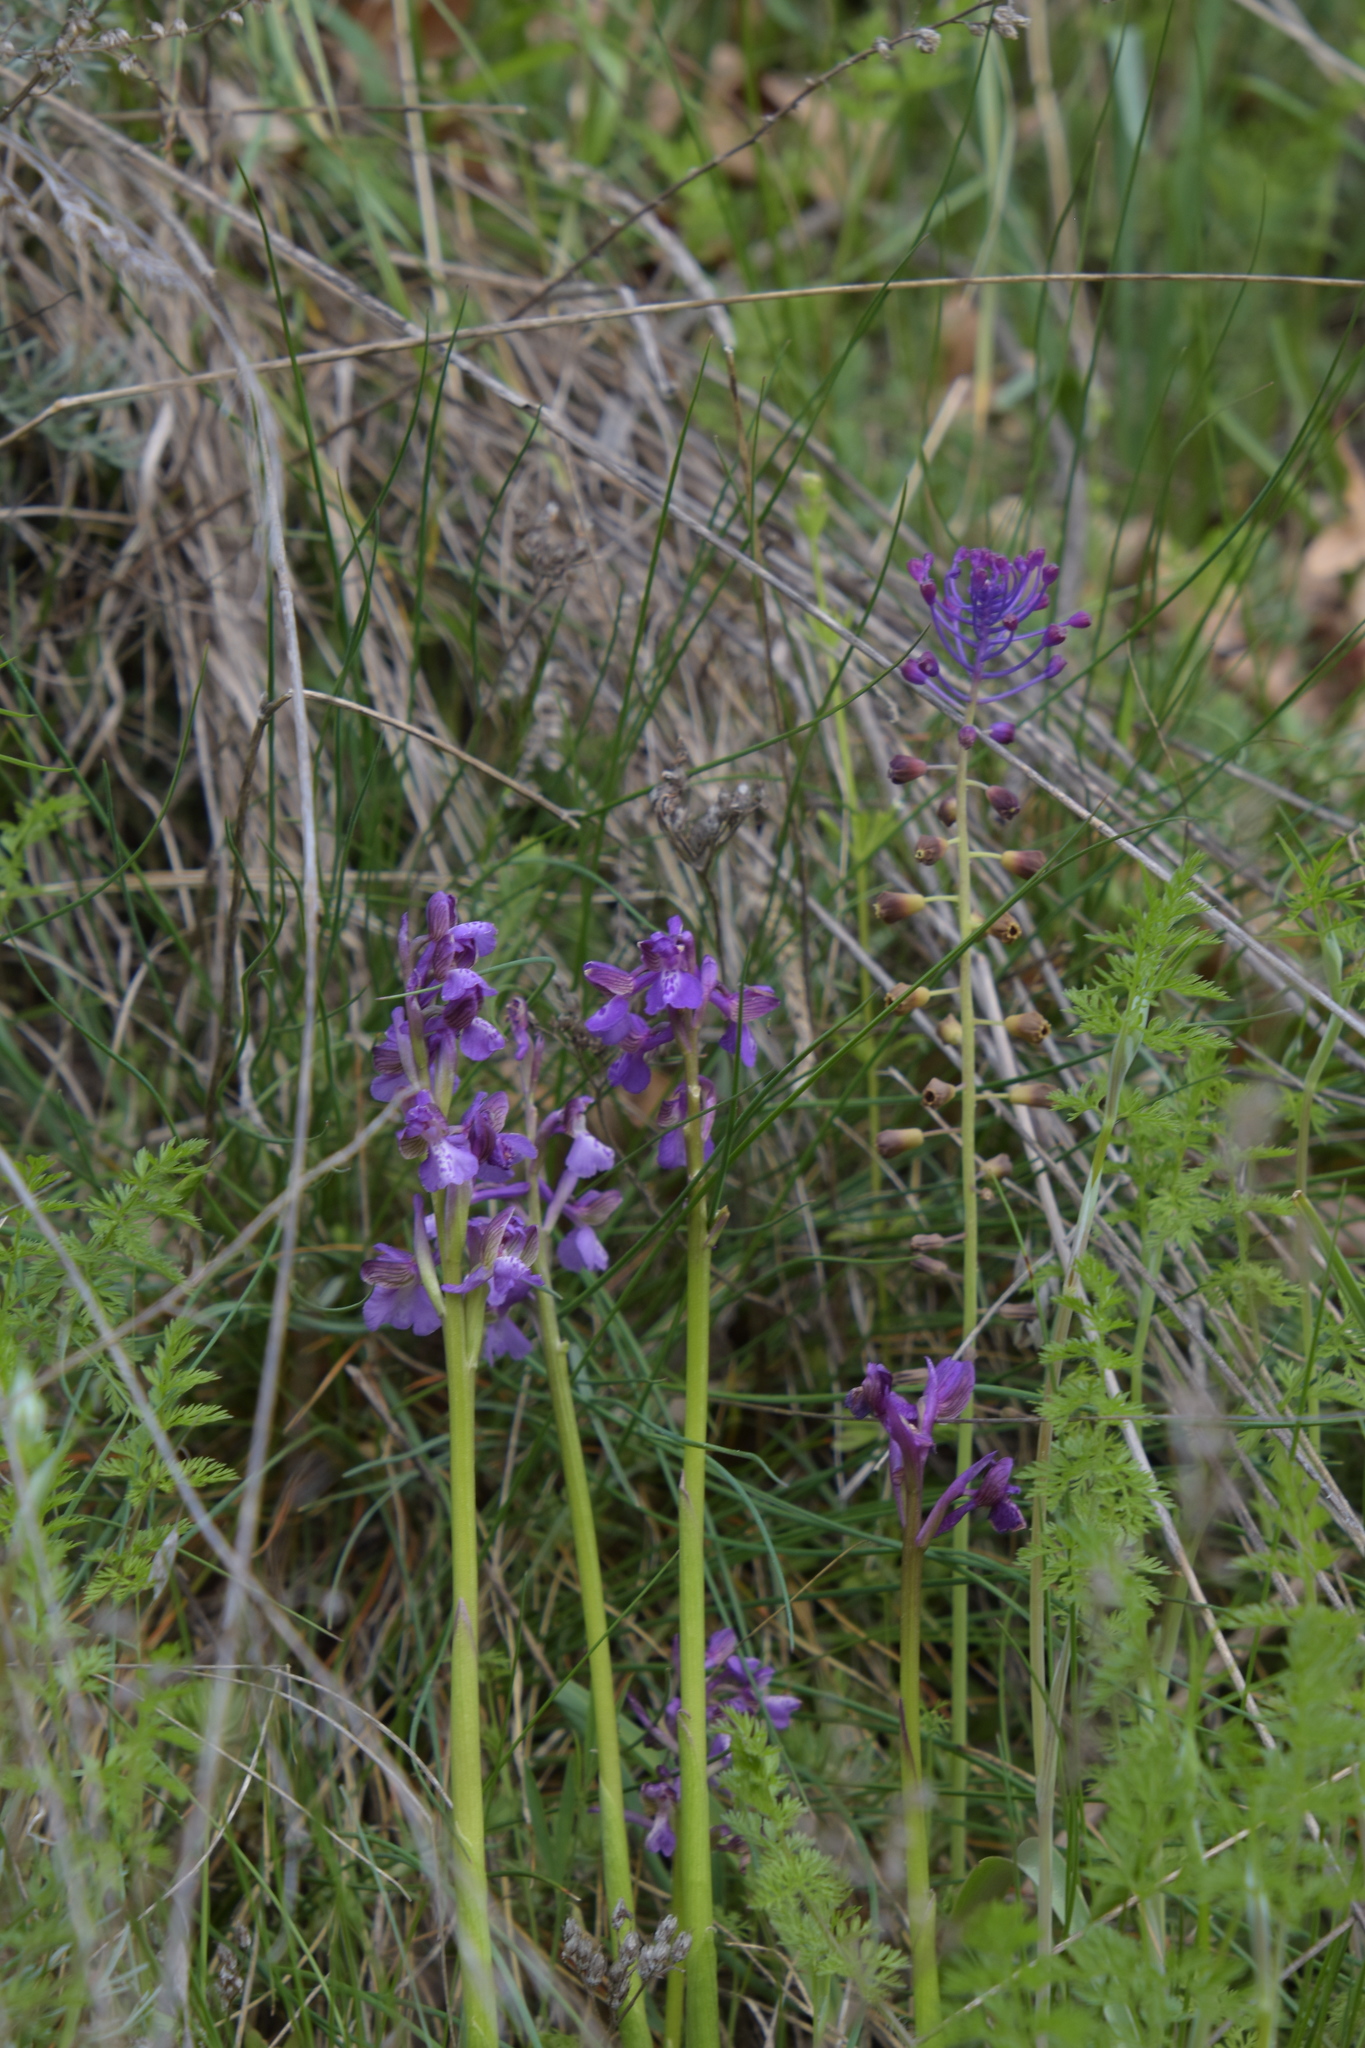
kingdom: Plantae
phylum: Tracheophyta
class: Liliopsida
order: Asparagales
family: Orchidaceae
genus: Anacamptis
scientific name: Anacamptis morio
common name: Green-winged orchid
